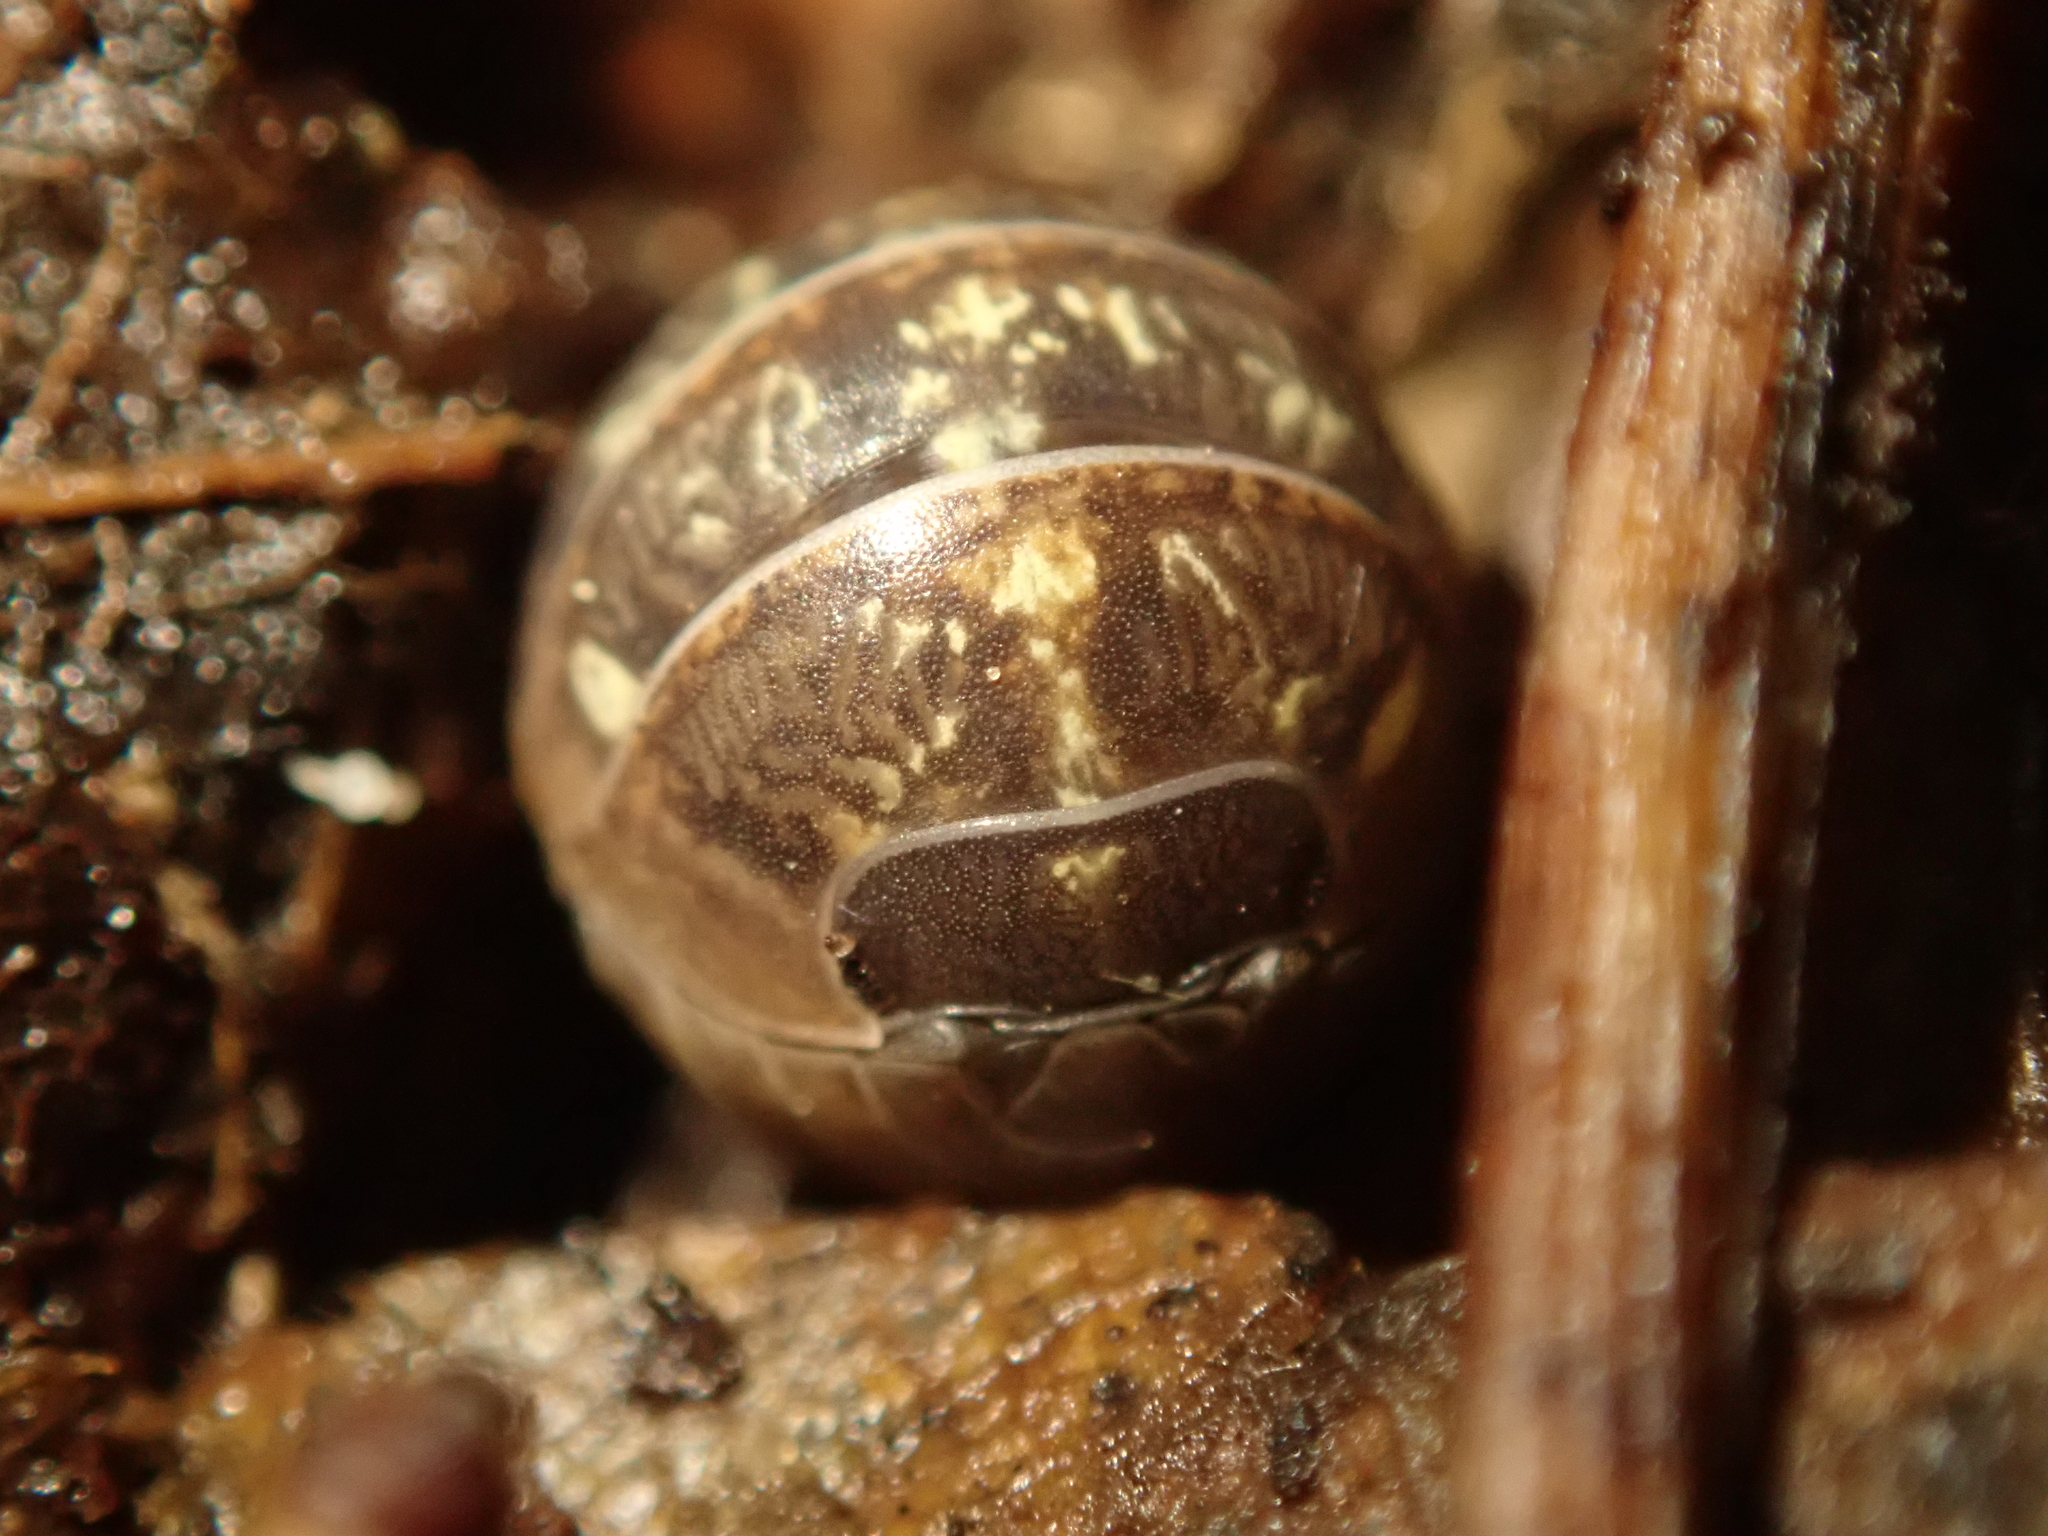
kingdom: Animalia
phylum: Arthropoda
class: Malacostraca
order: Isopoda
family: Armadillidiidae
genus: Armadillidium
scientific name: Armadillidium vulgare
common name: Common pill woodlouse
